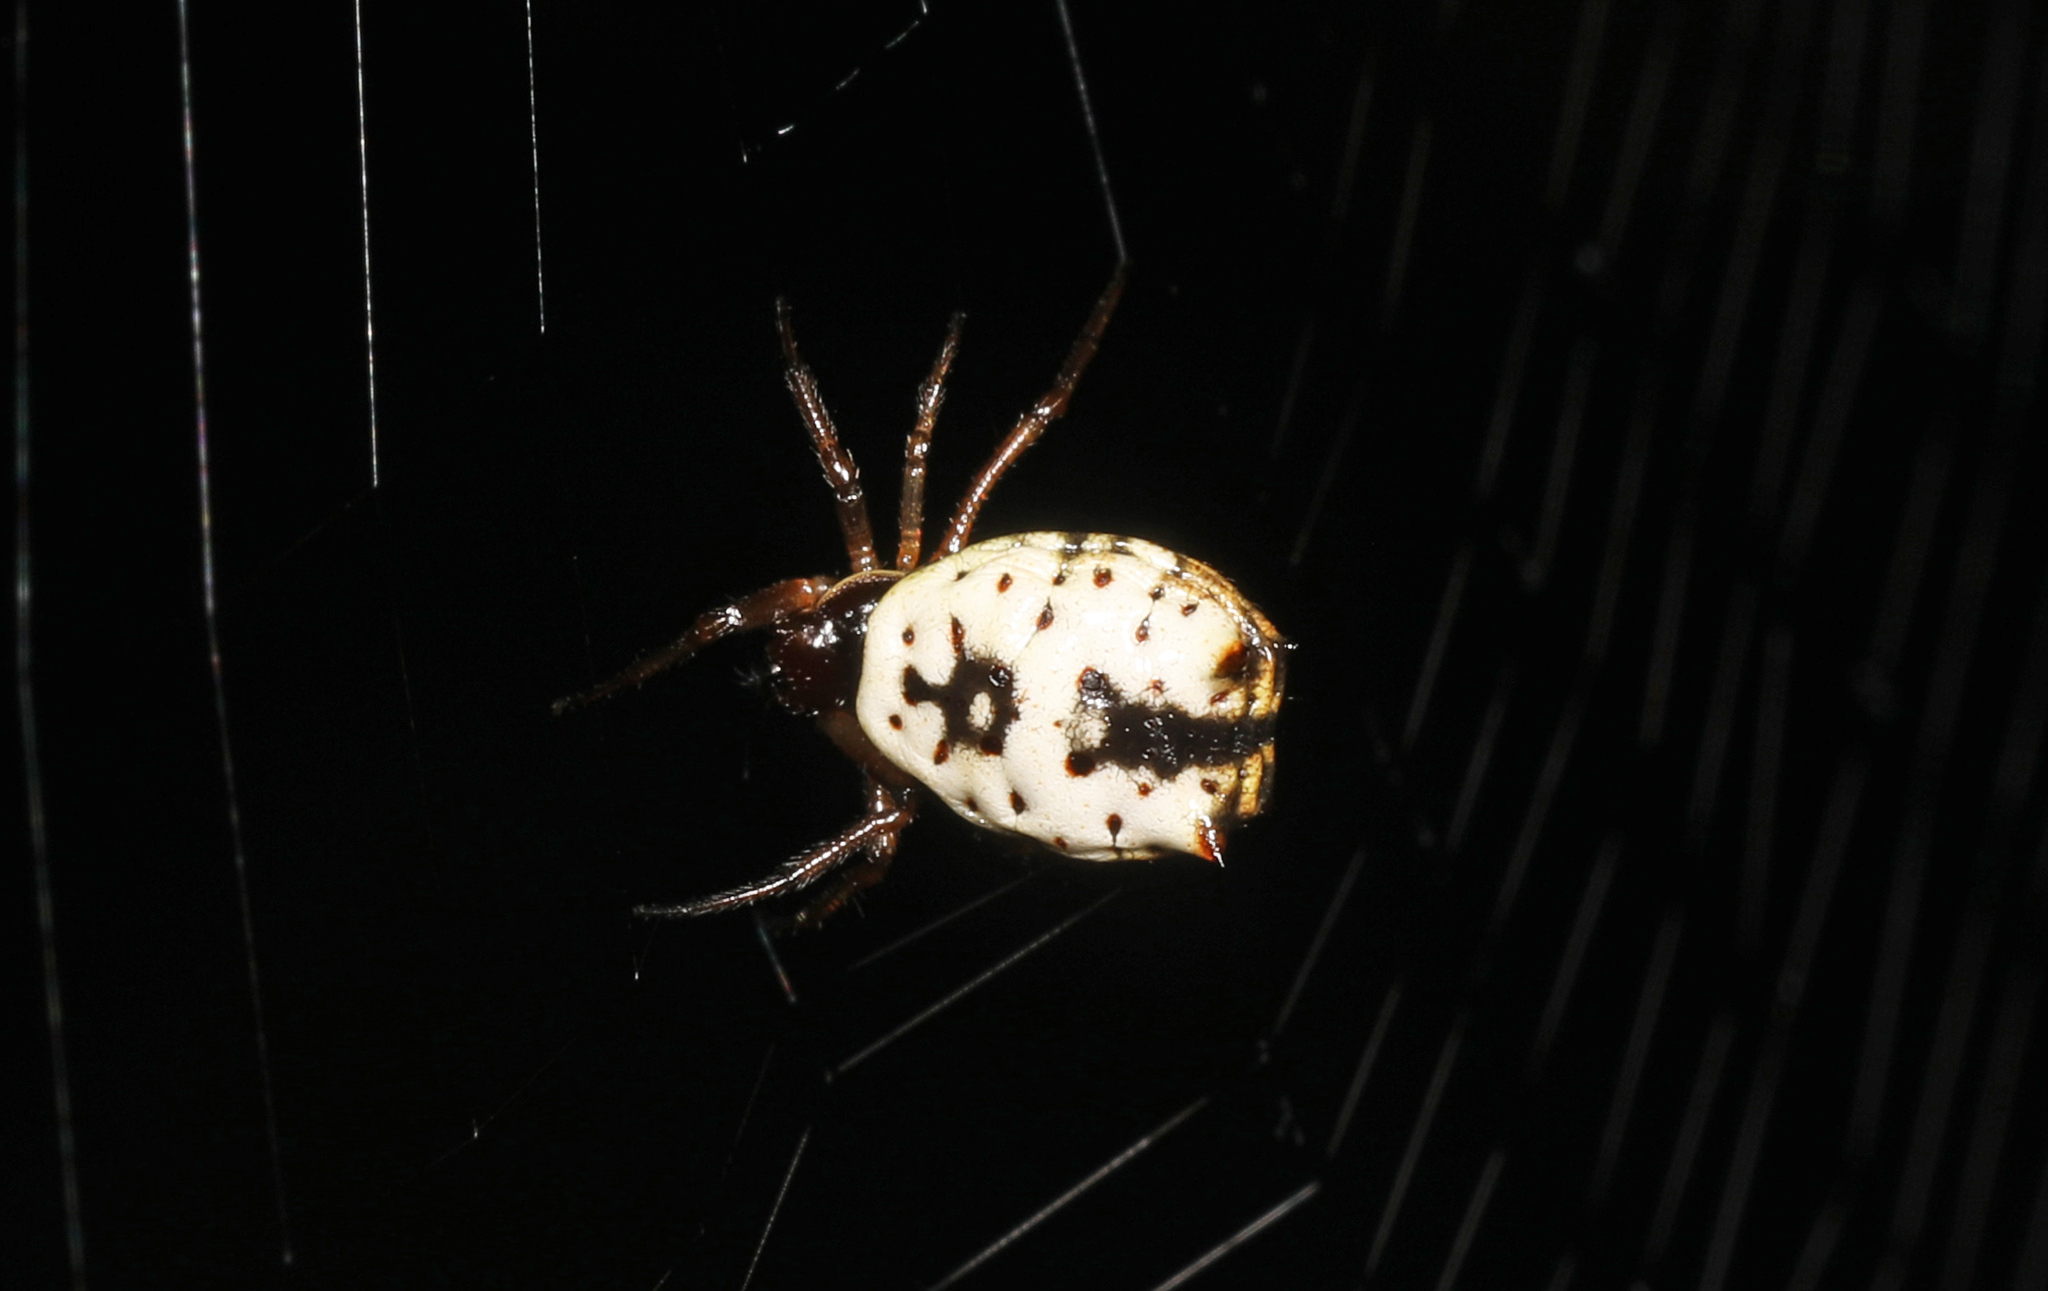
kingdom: Animalia
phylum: Arthropoda
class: Arachnida
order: Araneae
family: Araneidae
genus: Micrathena
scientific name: Micrathena mitrata
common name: Orb weavers
